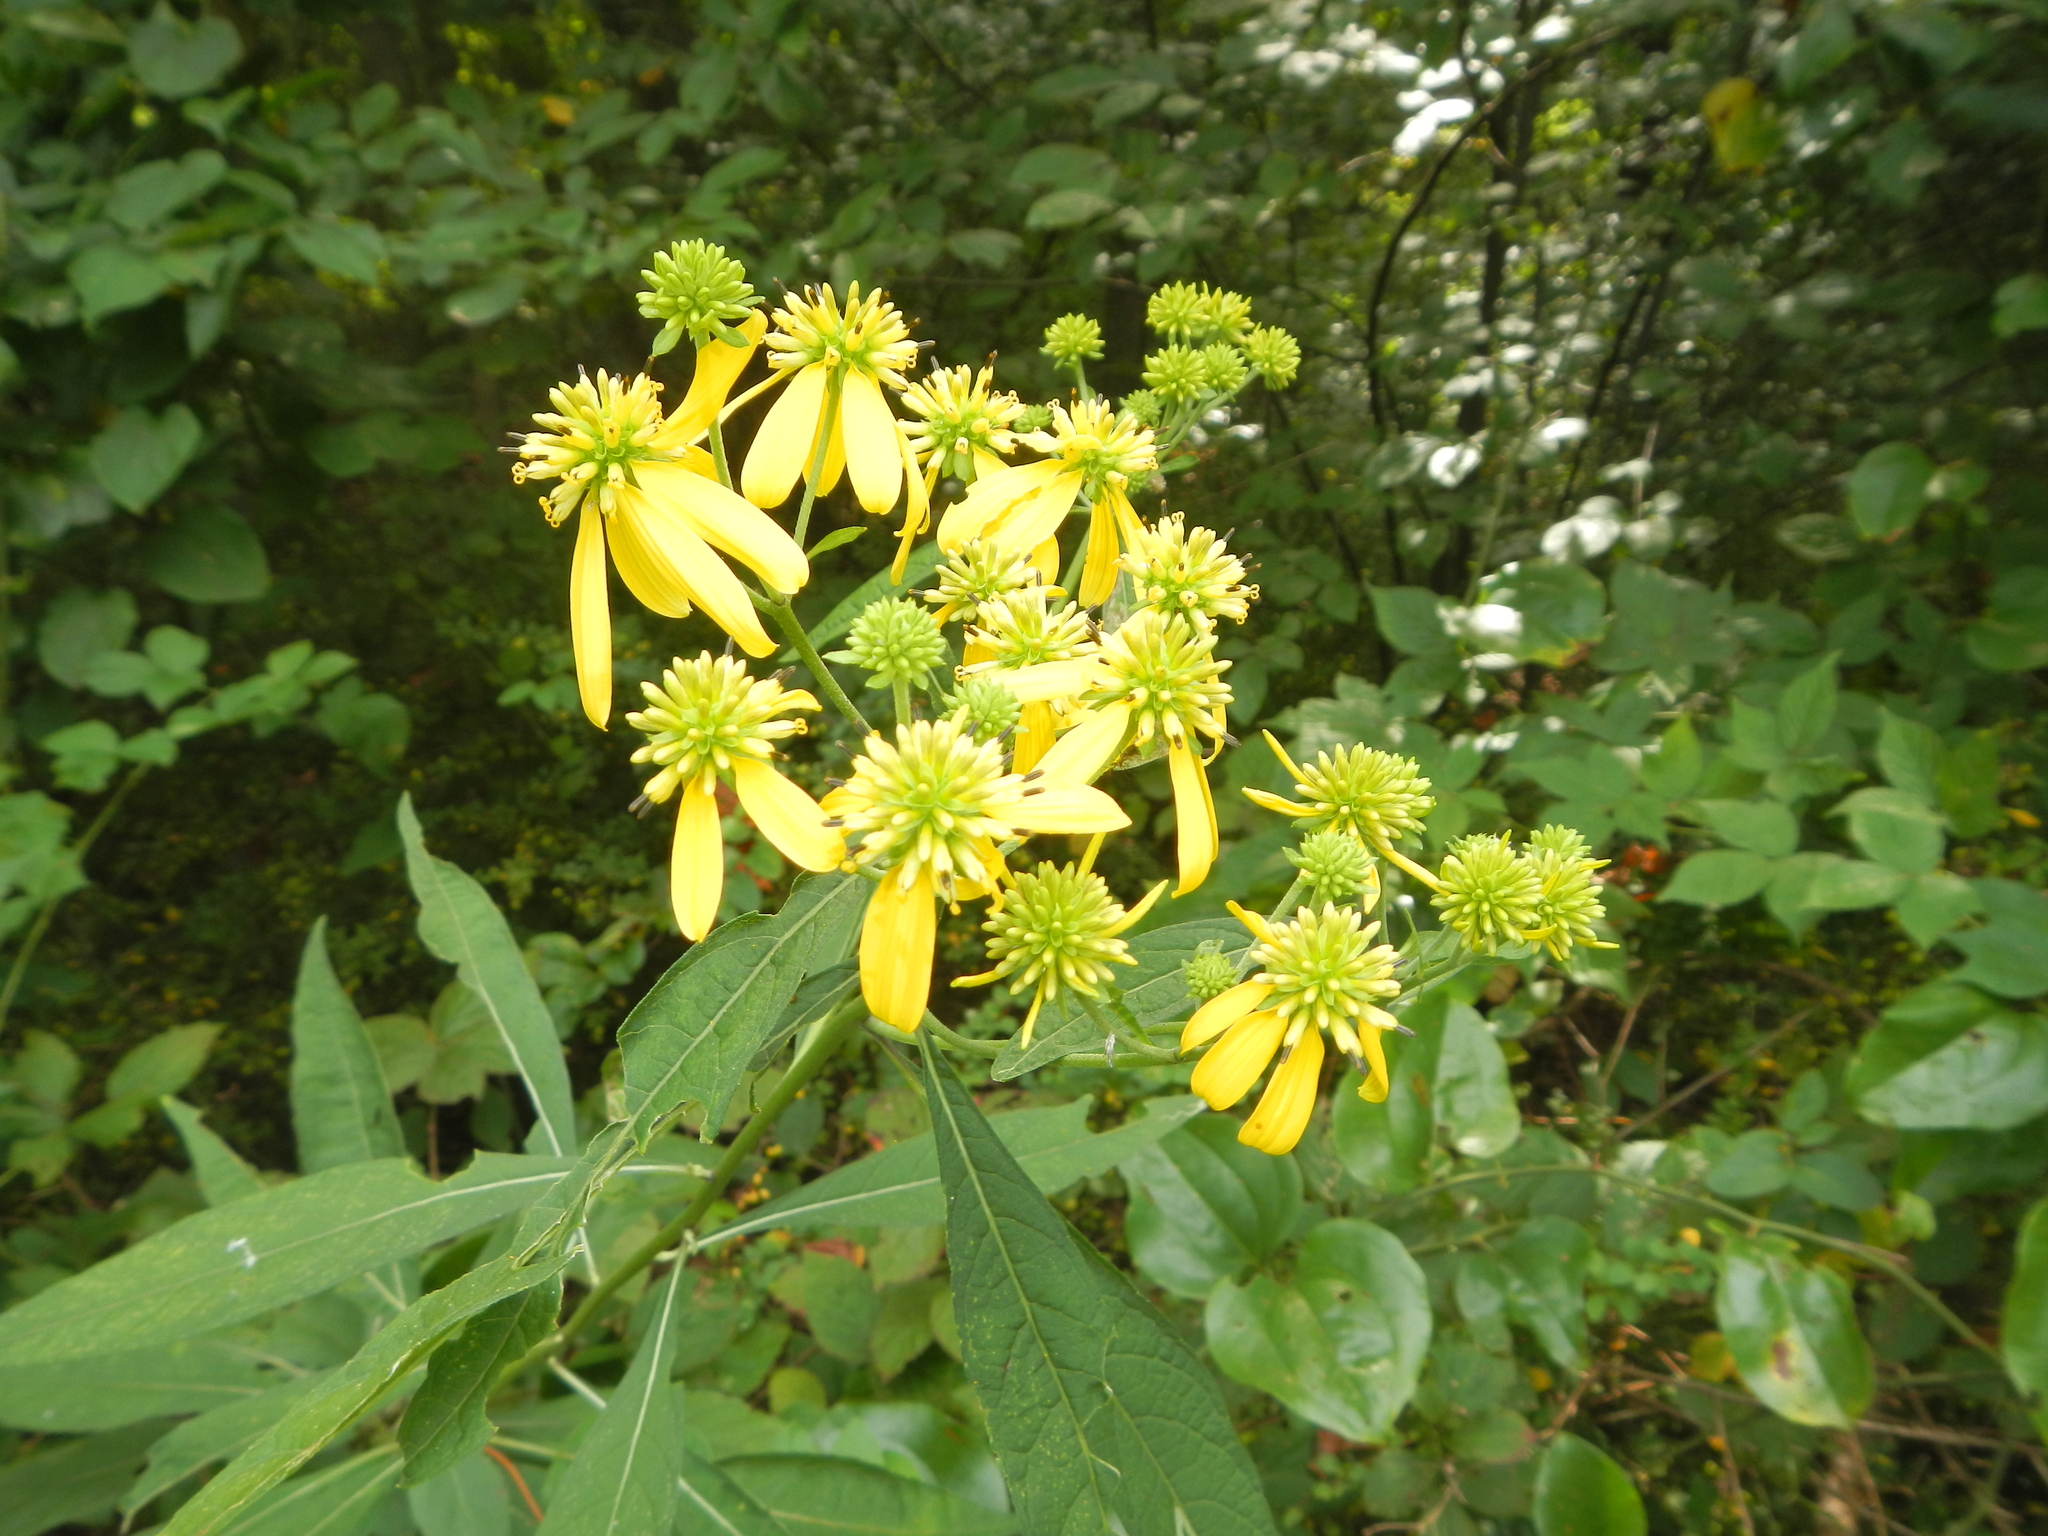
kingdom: Plantae
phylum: Tracheophyta
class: Magnoliopsida
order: Asterales
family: Asteraceae
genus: Verbesina
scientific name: Verbesina alternifolia
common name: Wingstem
